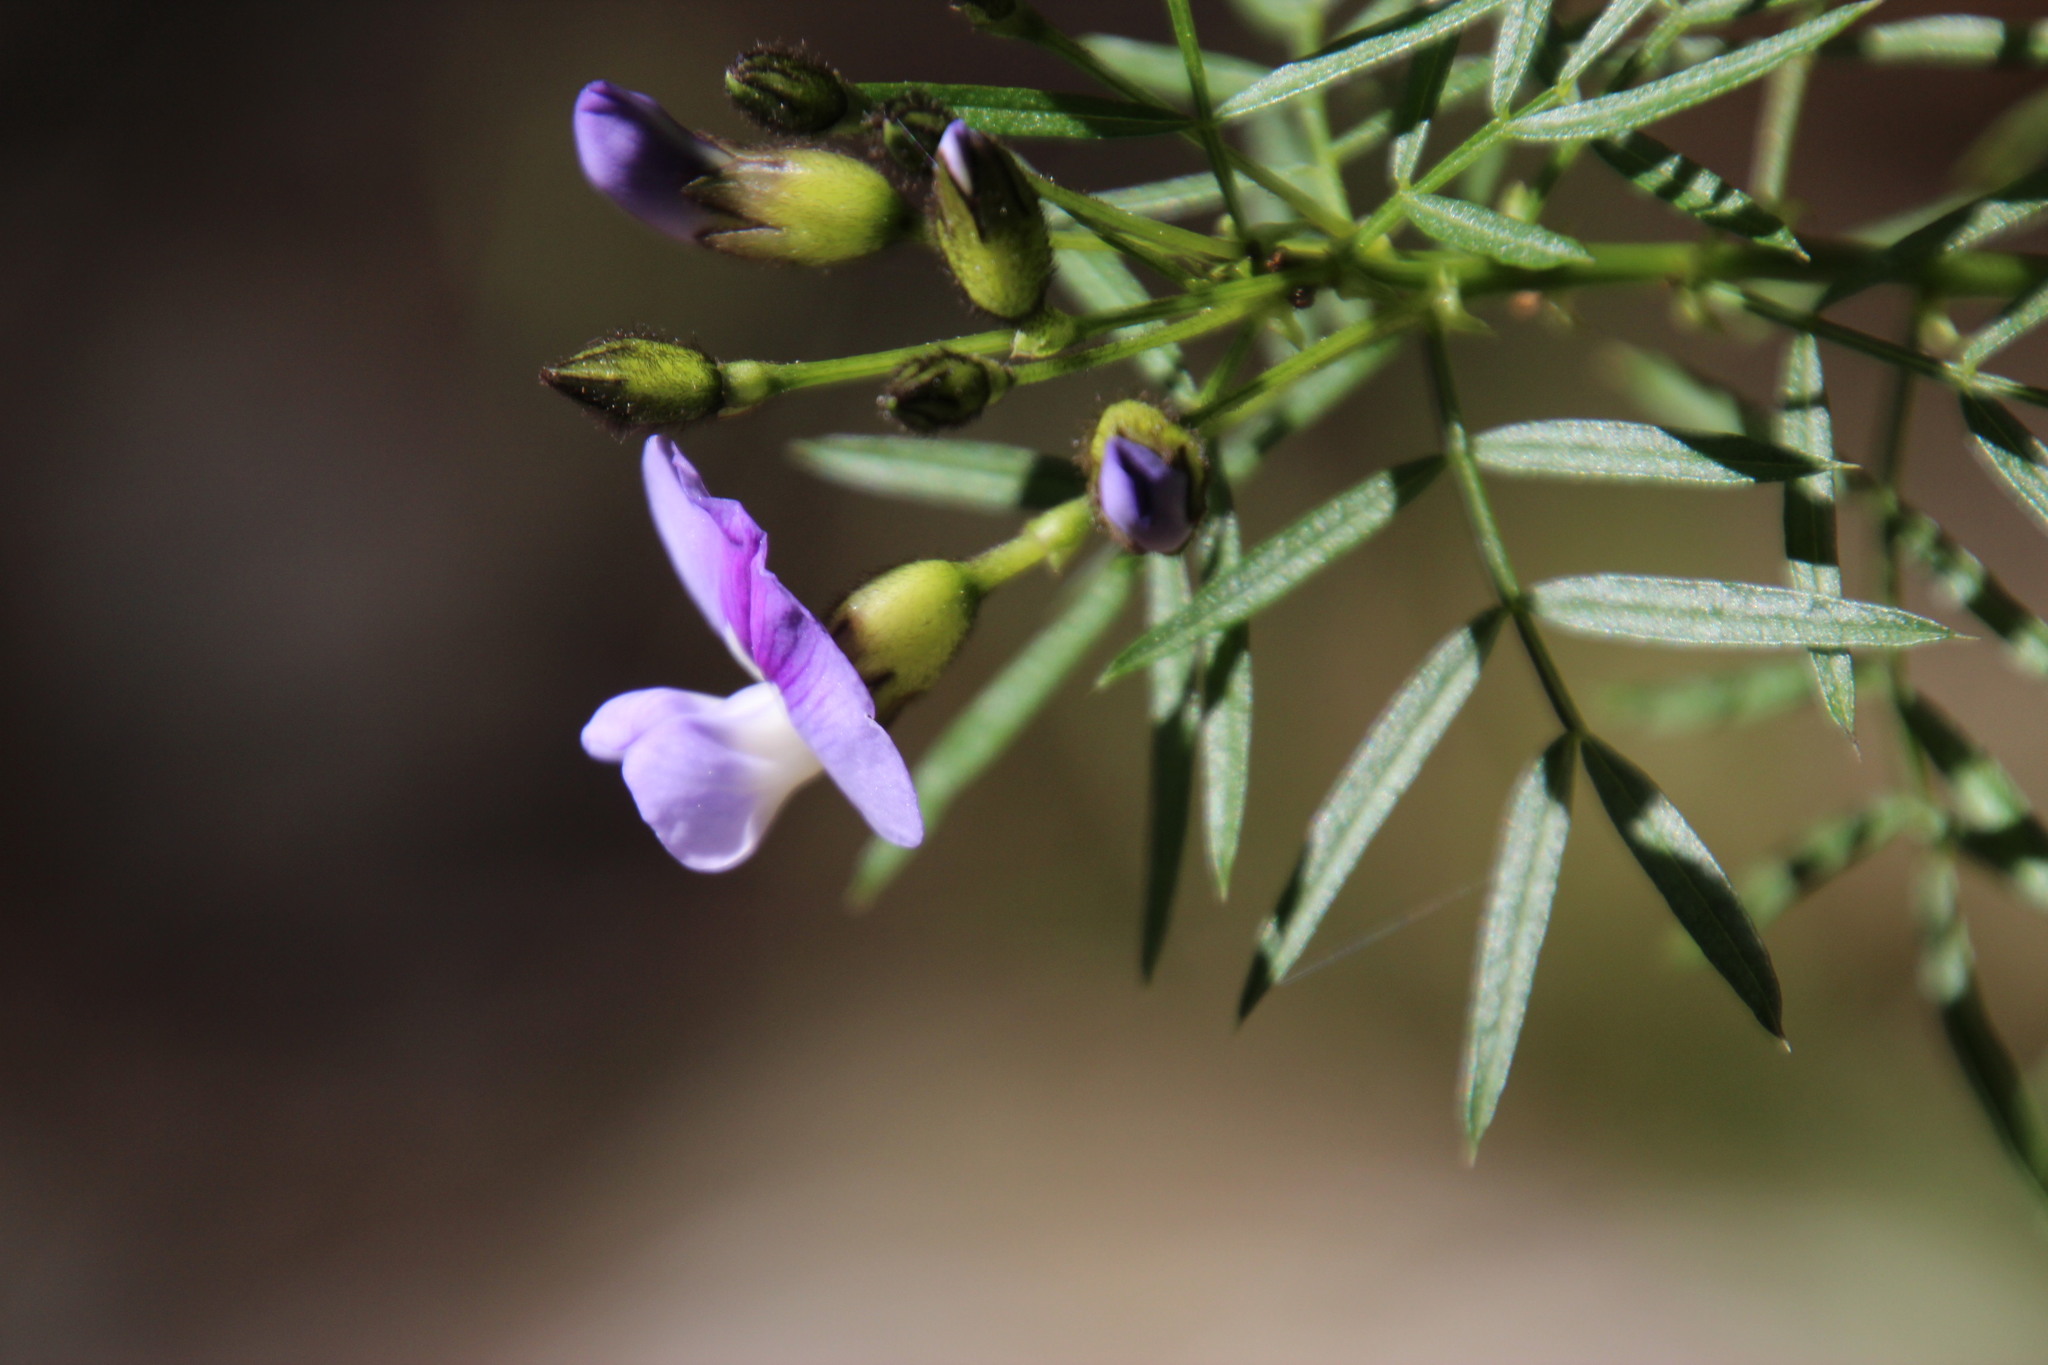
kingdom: Plantae
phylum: Tracheophyta
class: Magnoliopsida
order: Fabales
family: Fabaceae
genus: Psoralea
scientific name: Psoralea arborea
